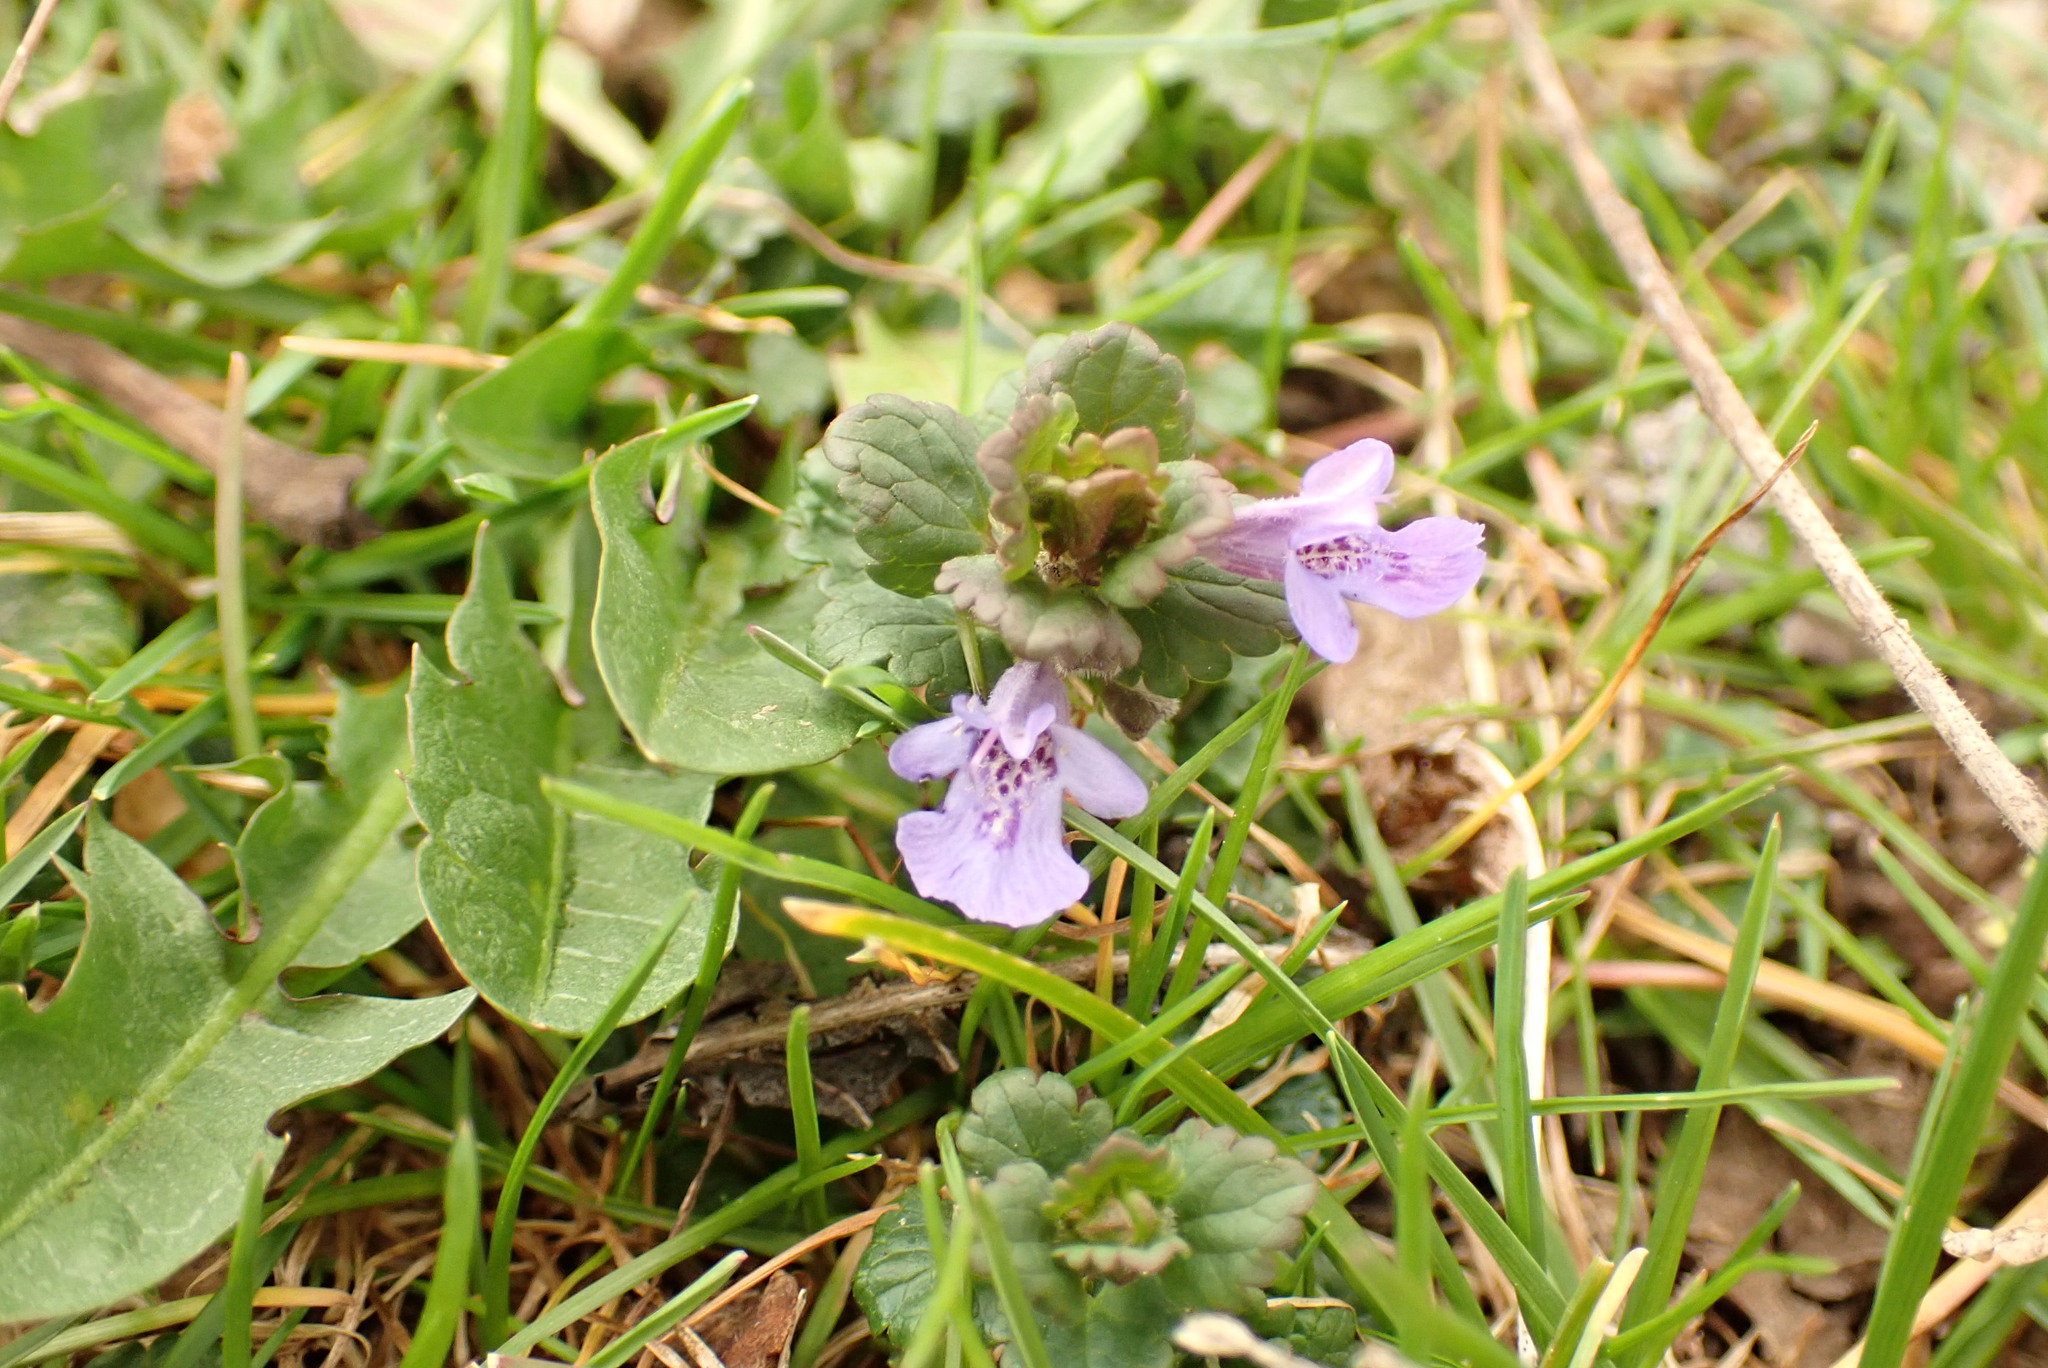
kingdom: Plantae
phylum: Tracheophyta
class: Magnoliopsida
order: Lamiales
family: Lamiaceae
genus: Glechoma
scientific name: Glechoma hederacea
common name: Ground ivy
